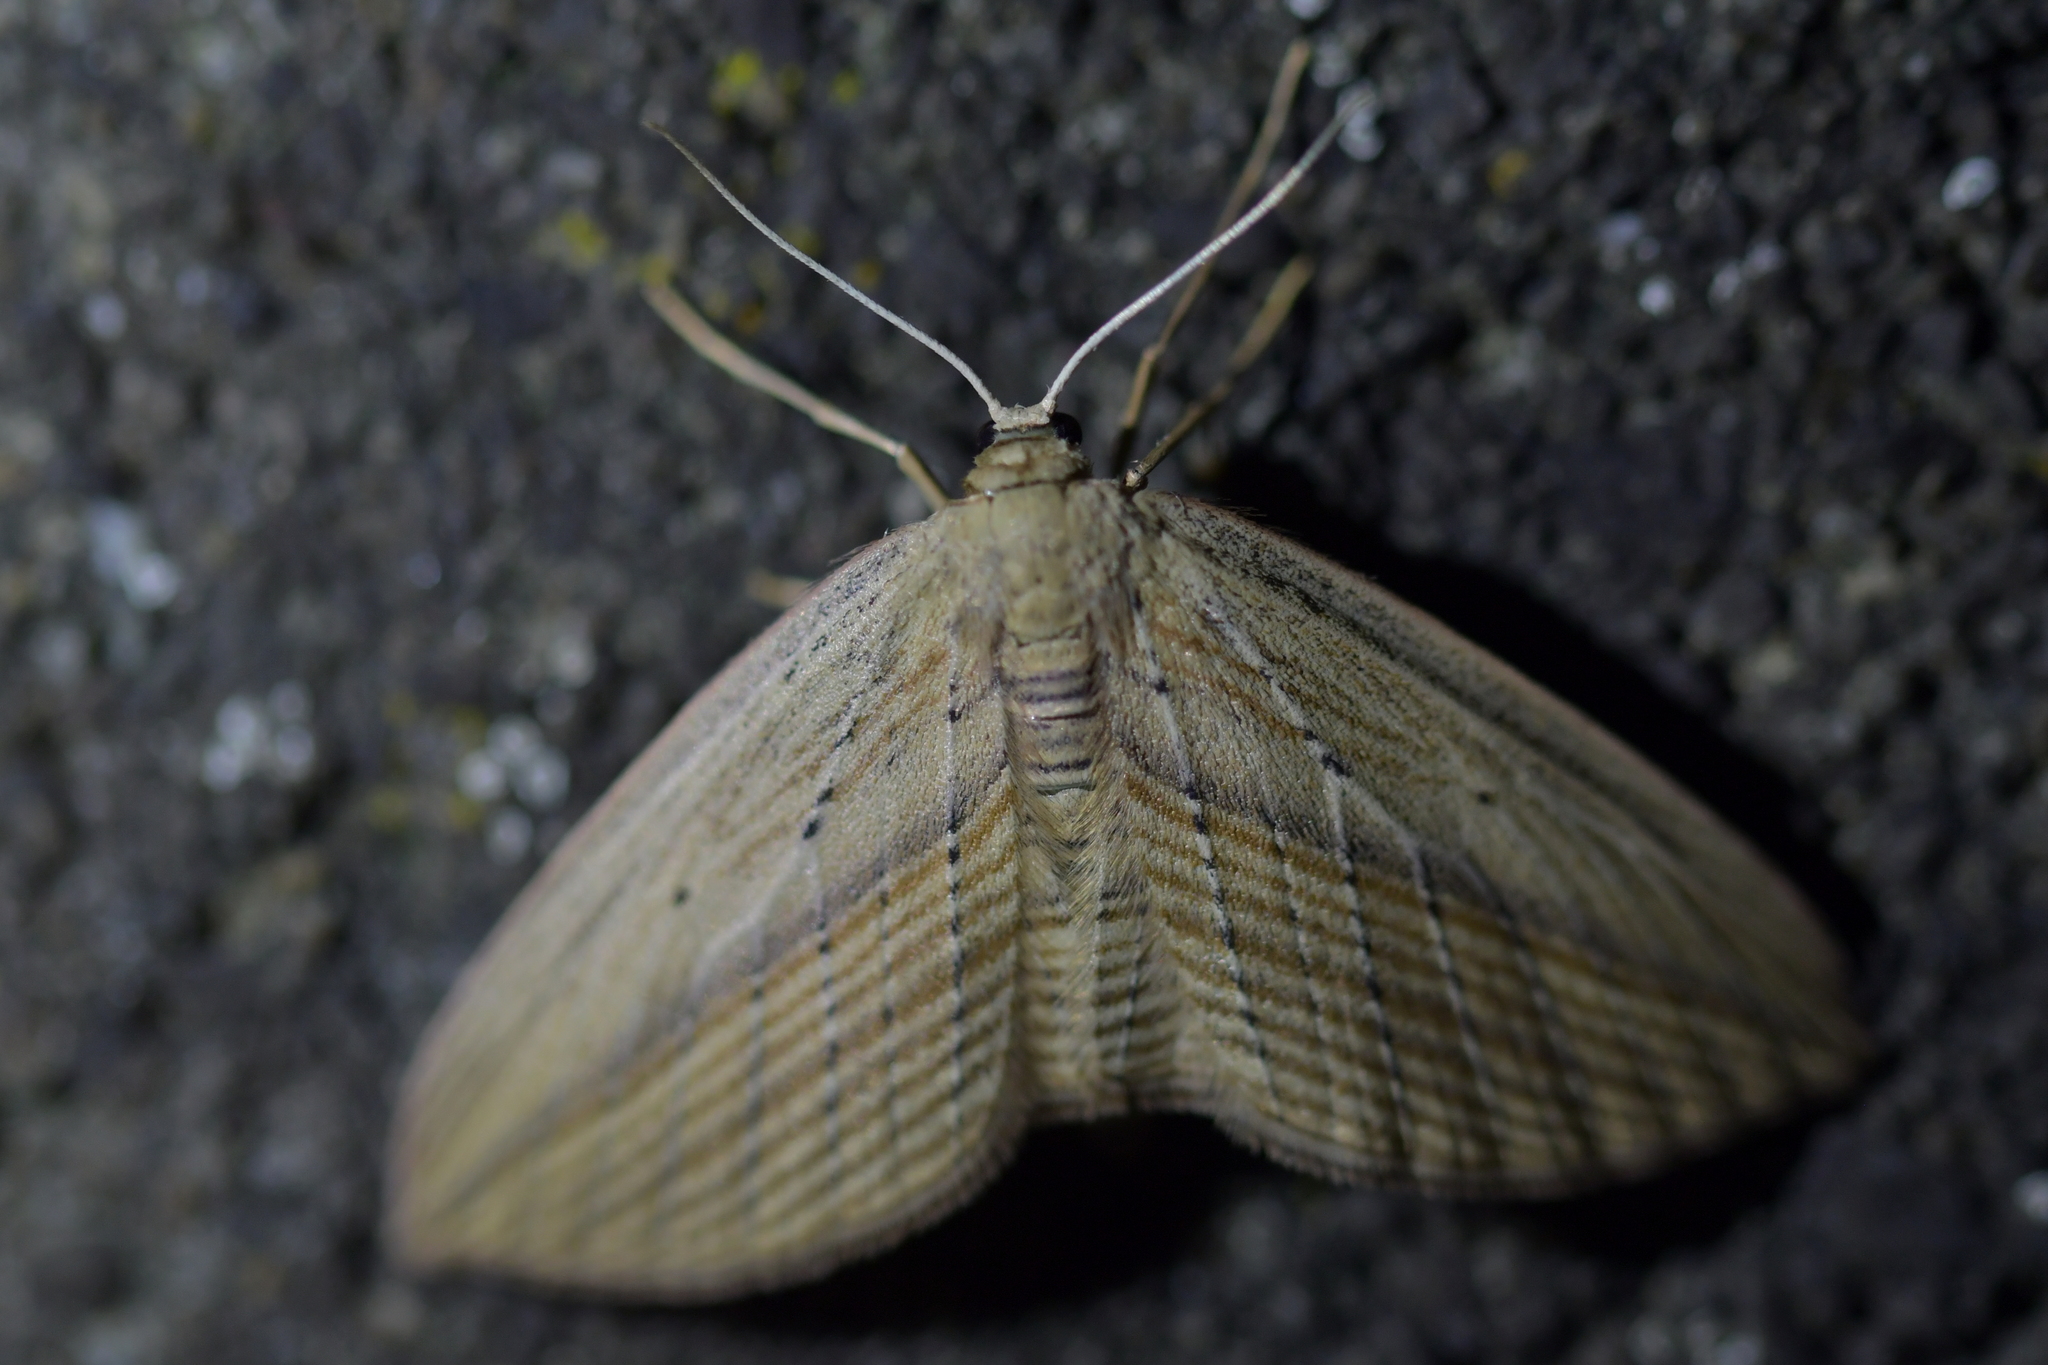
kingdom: Animalia
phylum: Arthropoda
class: Insecta
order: Lepidoptera
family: Geometridae
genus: Epiphryne
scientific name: Epiphryne verriculata
